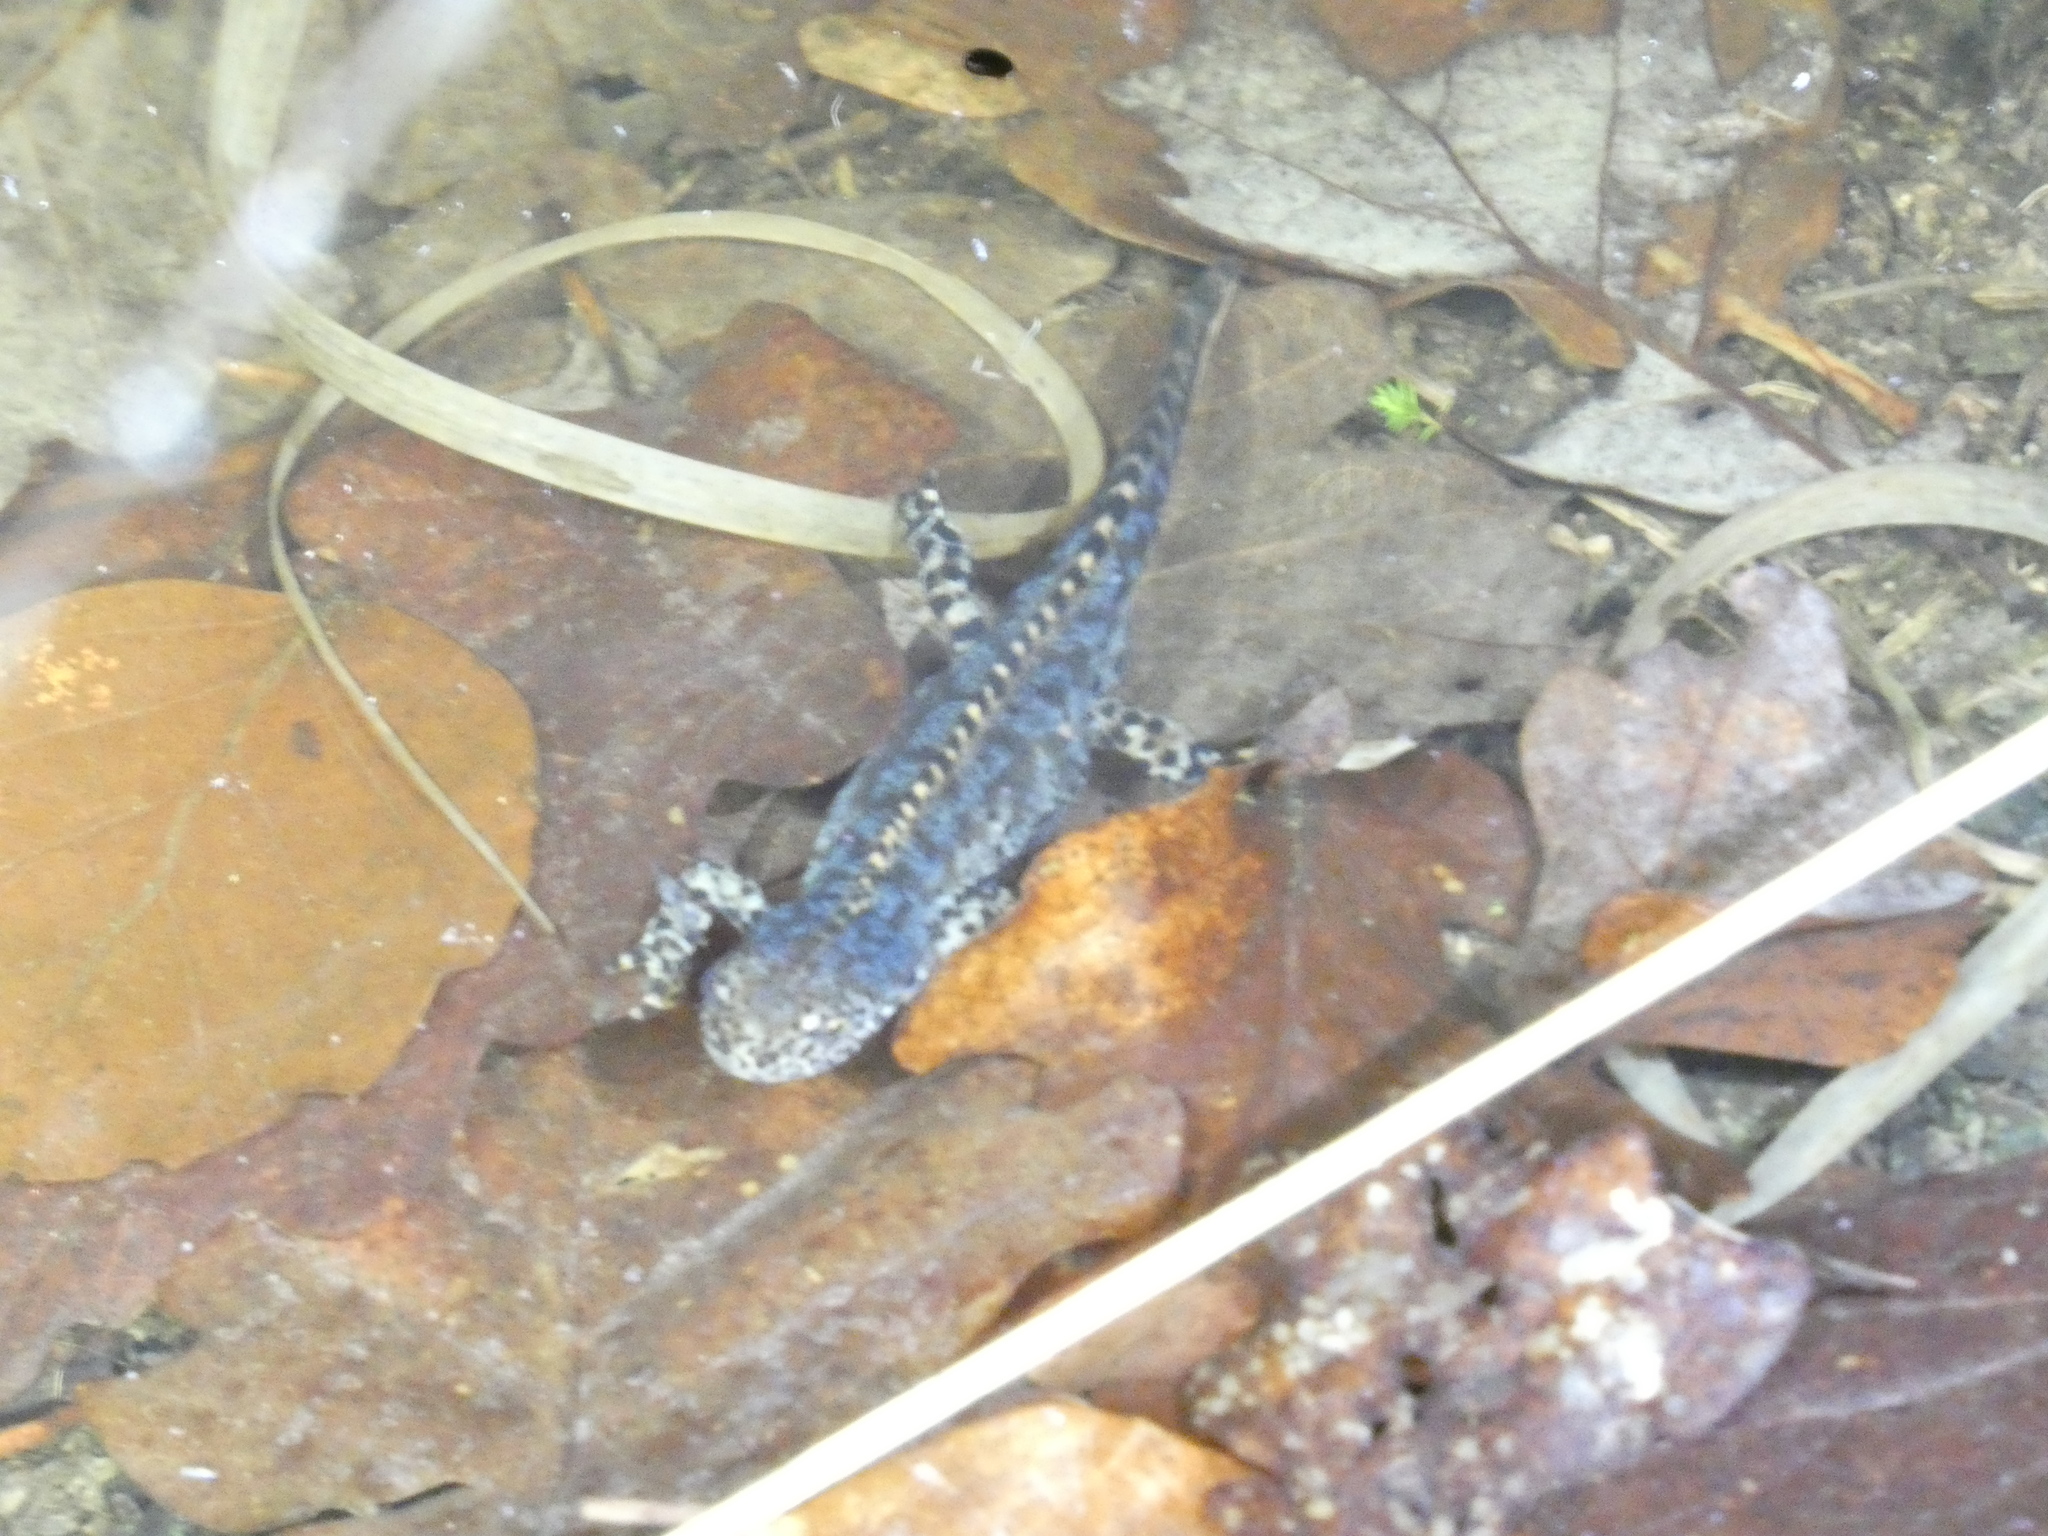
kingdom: Animalia
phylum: Chordata
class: Amphibia
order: Caudata
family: Salamandridae
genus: Ichthyosaura
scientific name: Ichthyosaura alpestris
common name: Alpine newt
